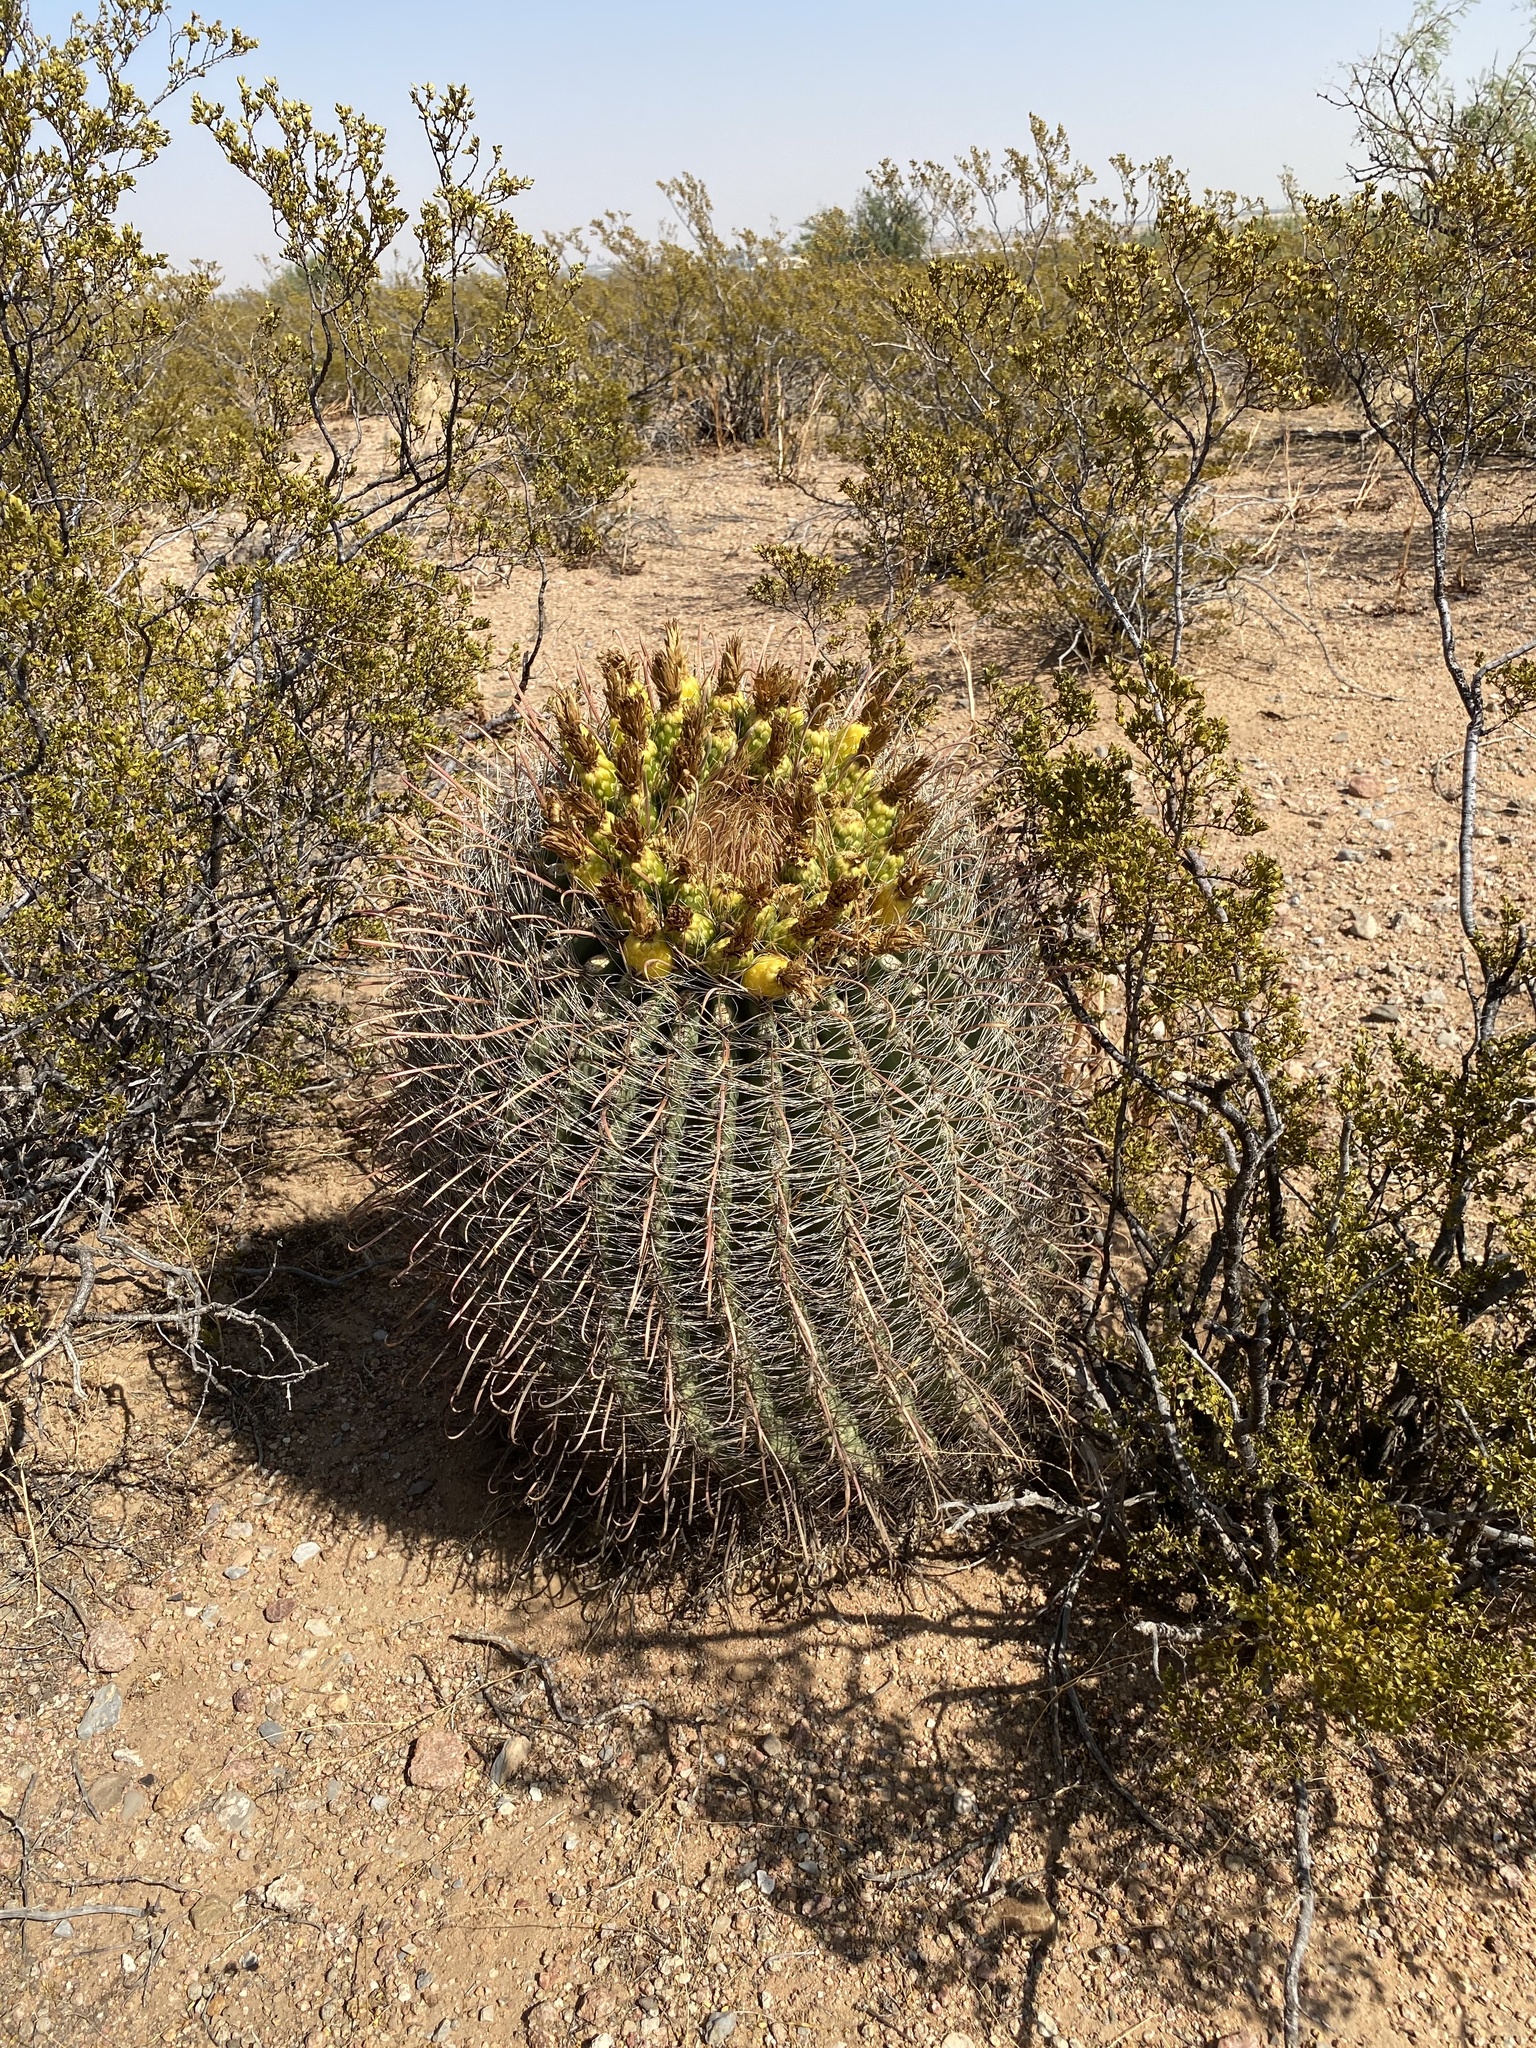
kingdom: Plantae
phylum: Tracheophyta
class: Magnoliopsida
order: Caryophyllales
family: Cactaceae
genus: Ferocactus
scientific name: Ferocactus wislizeni
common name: Candy barrel cactus
